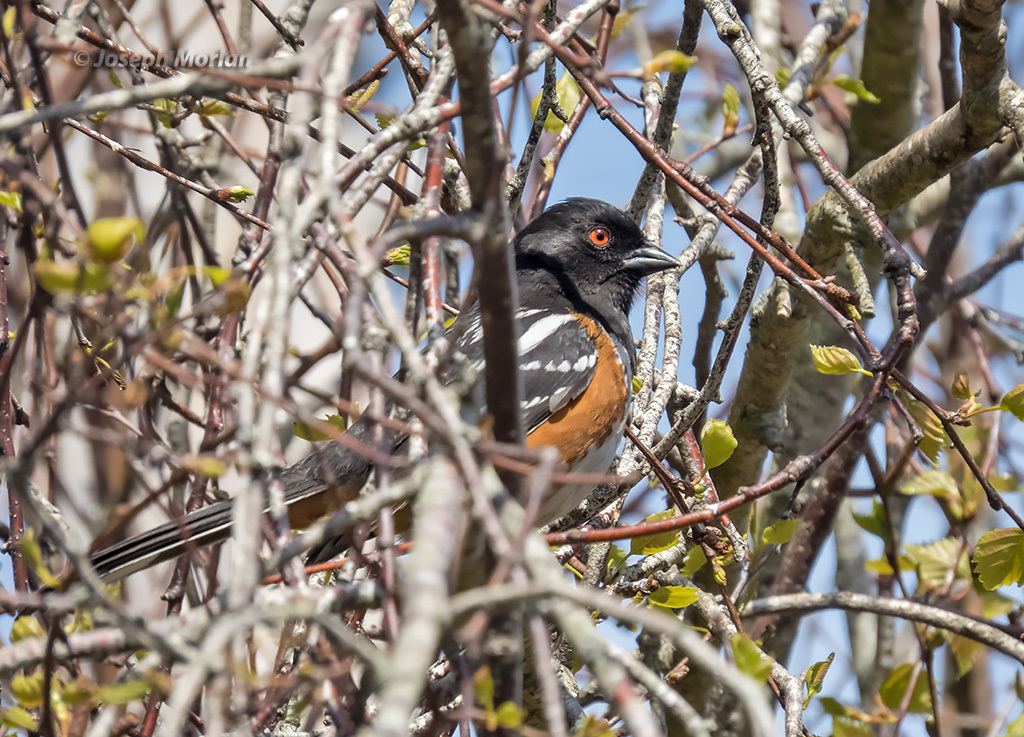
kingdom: Animalia
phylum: Chordata
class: Aves
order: Passeriformes
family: Passerellidae
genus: Pipilo
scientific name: Pipilo maculatus
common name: Spotted towhee
